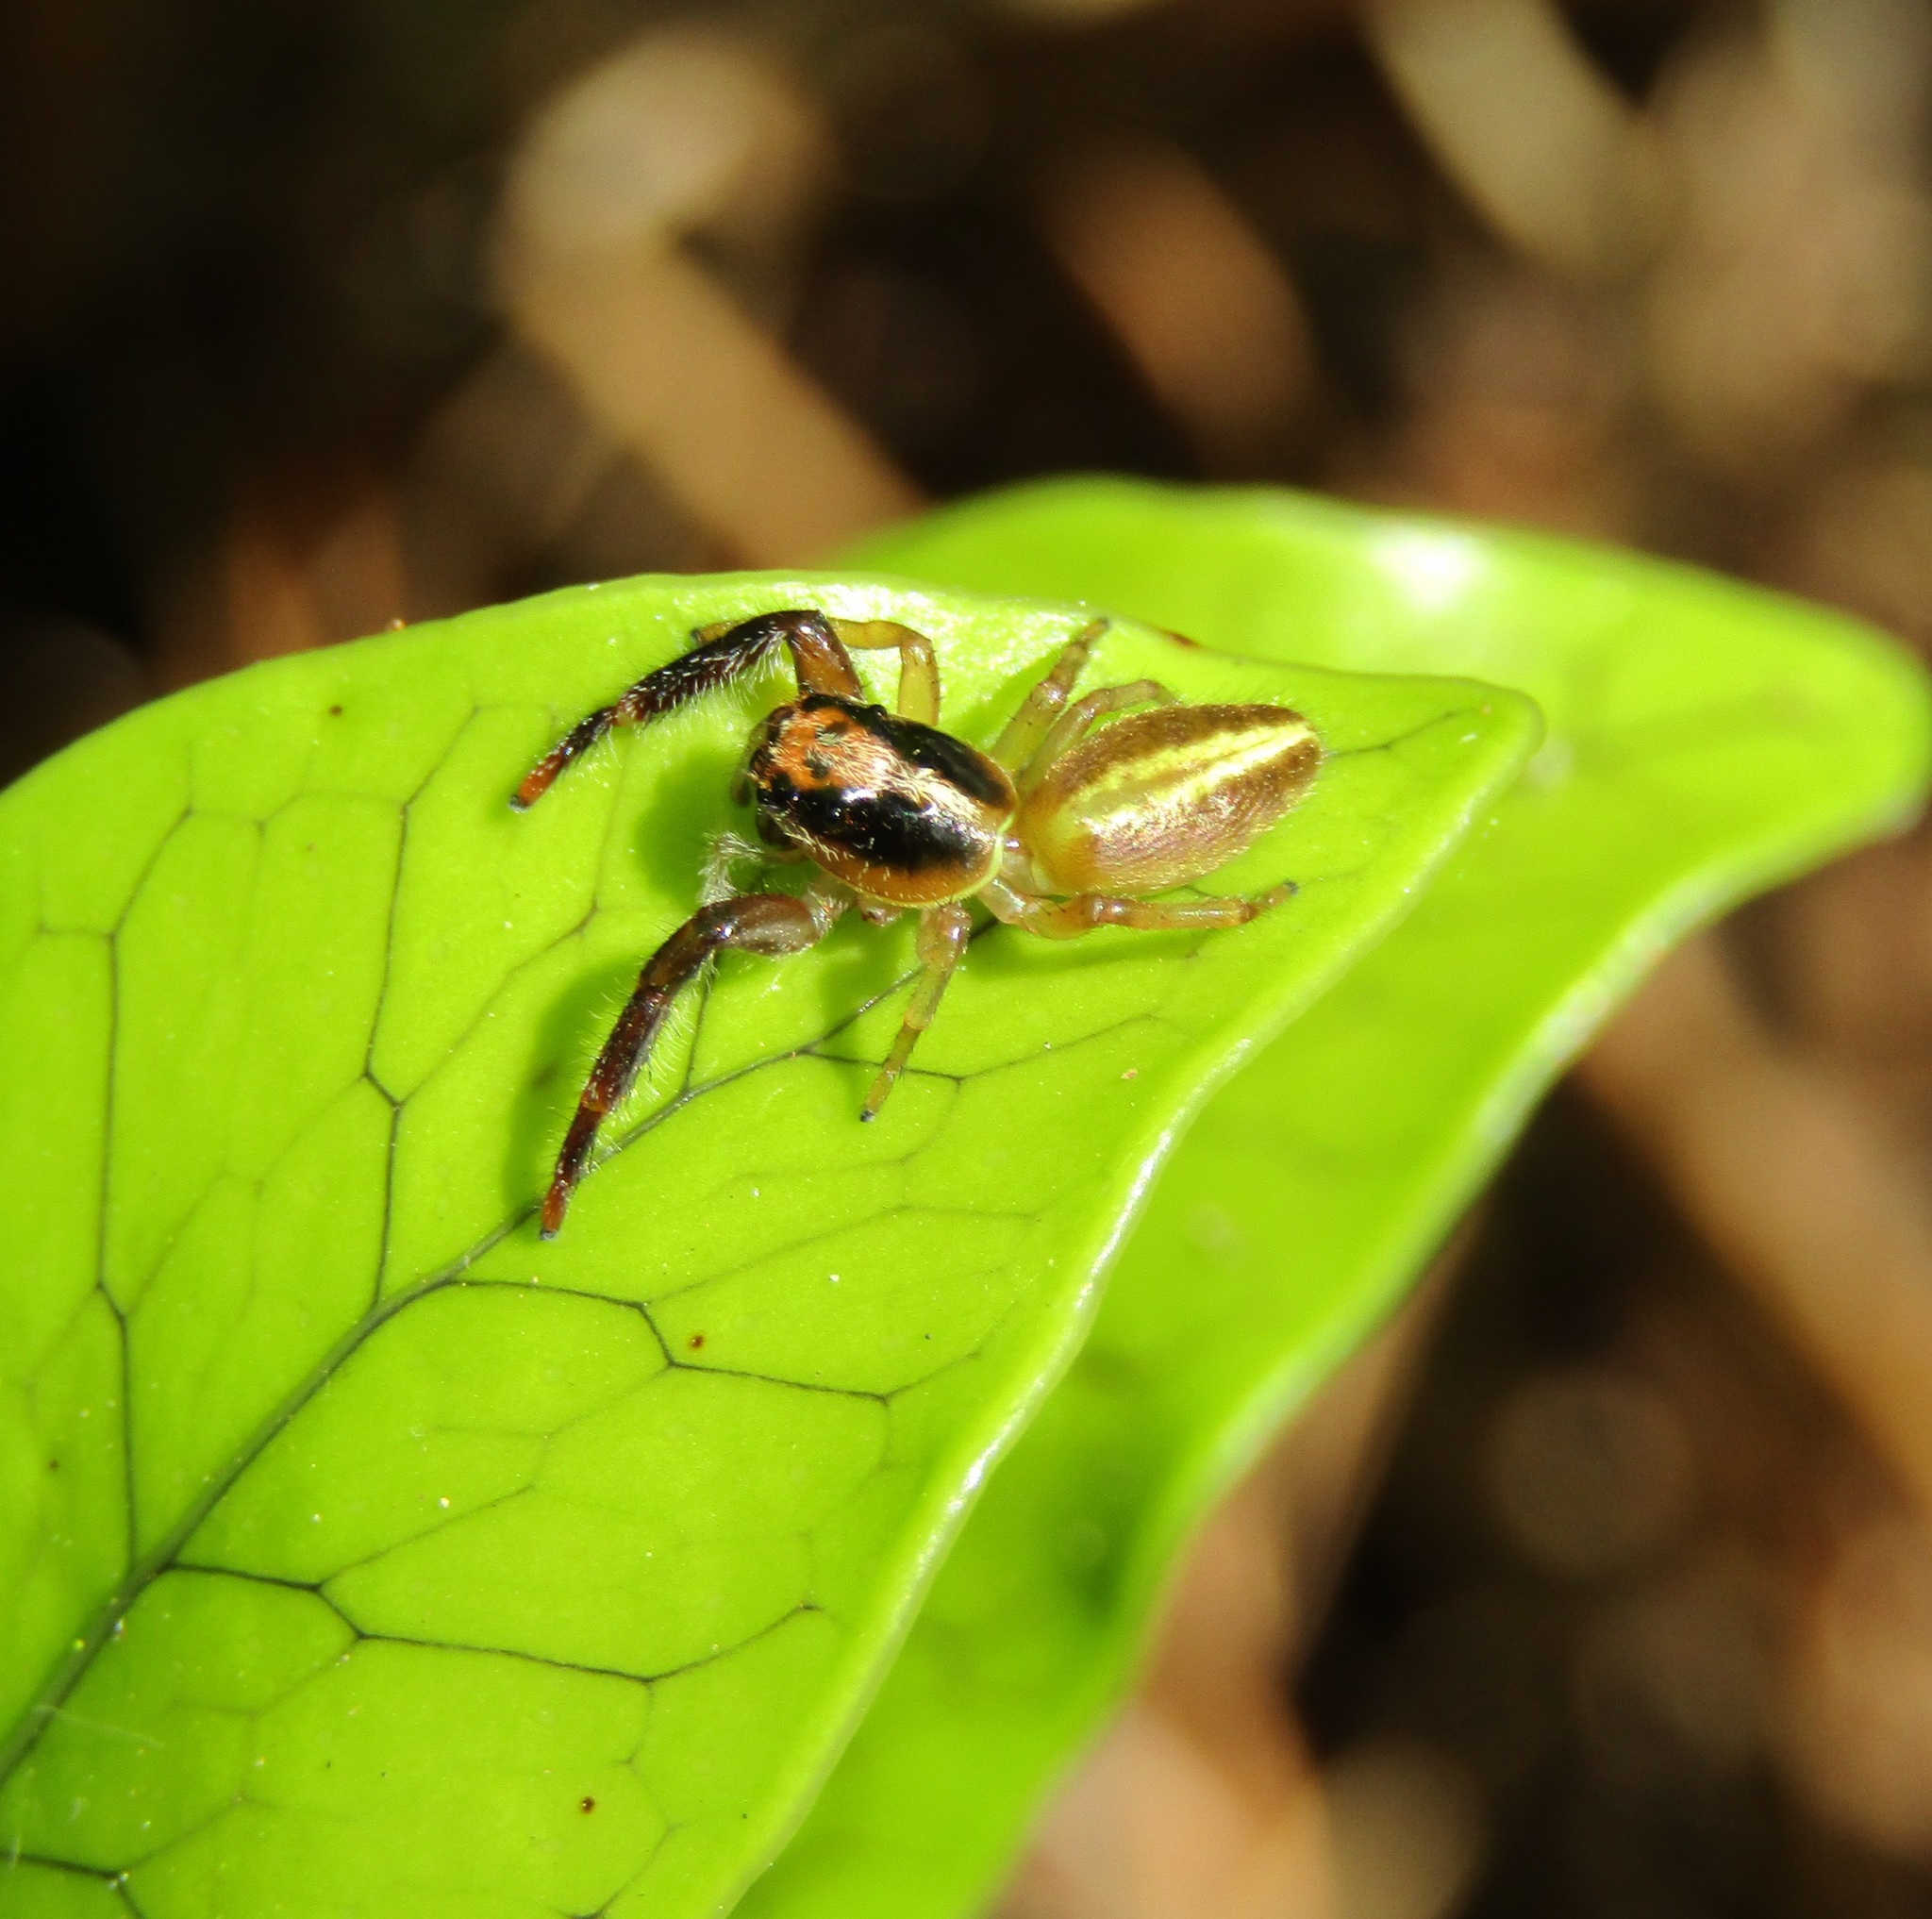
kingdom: Animalia
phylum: Arthropoda
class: Arachnida
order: Araneae
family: Salticidae
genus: Trite
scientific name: Trite planiceps
